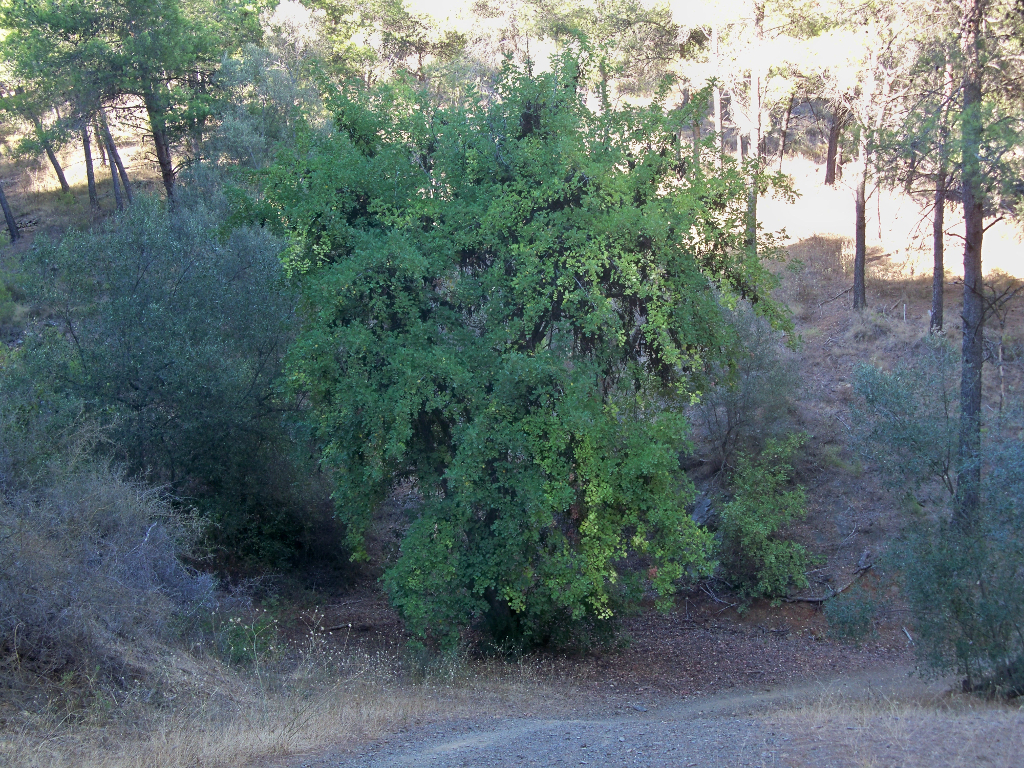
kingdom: Plantae
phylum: Tracheophyta
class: Magnoliopsida
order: Fabales
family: Fabaceae
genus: Ceratonia
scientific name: Ceratonia siliqua
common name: Carob
